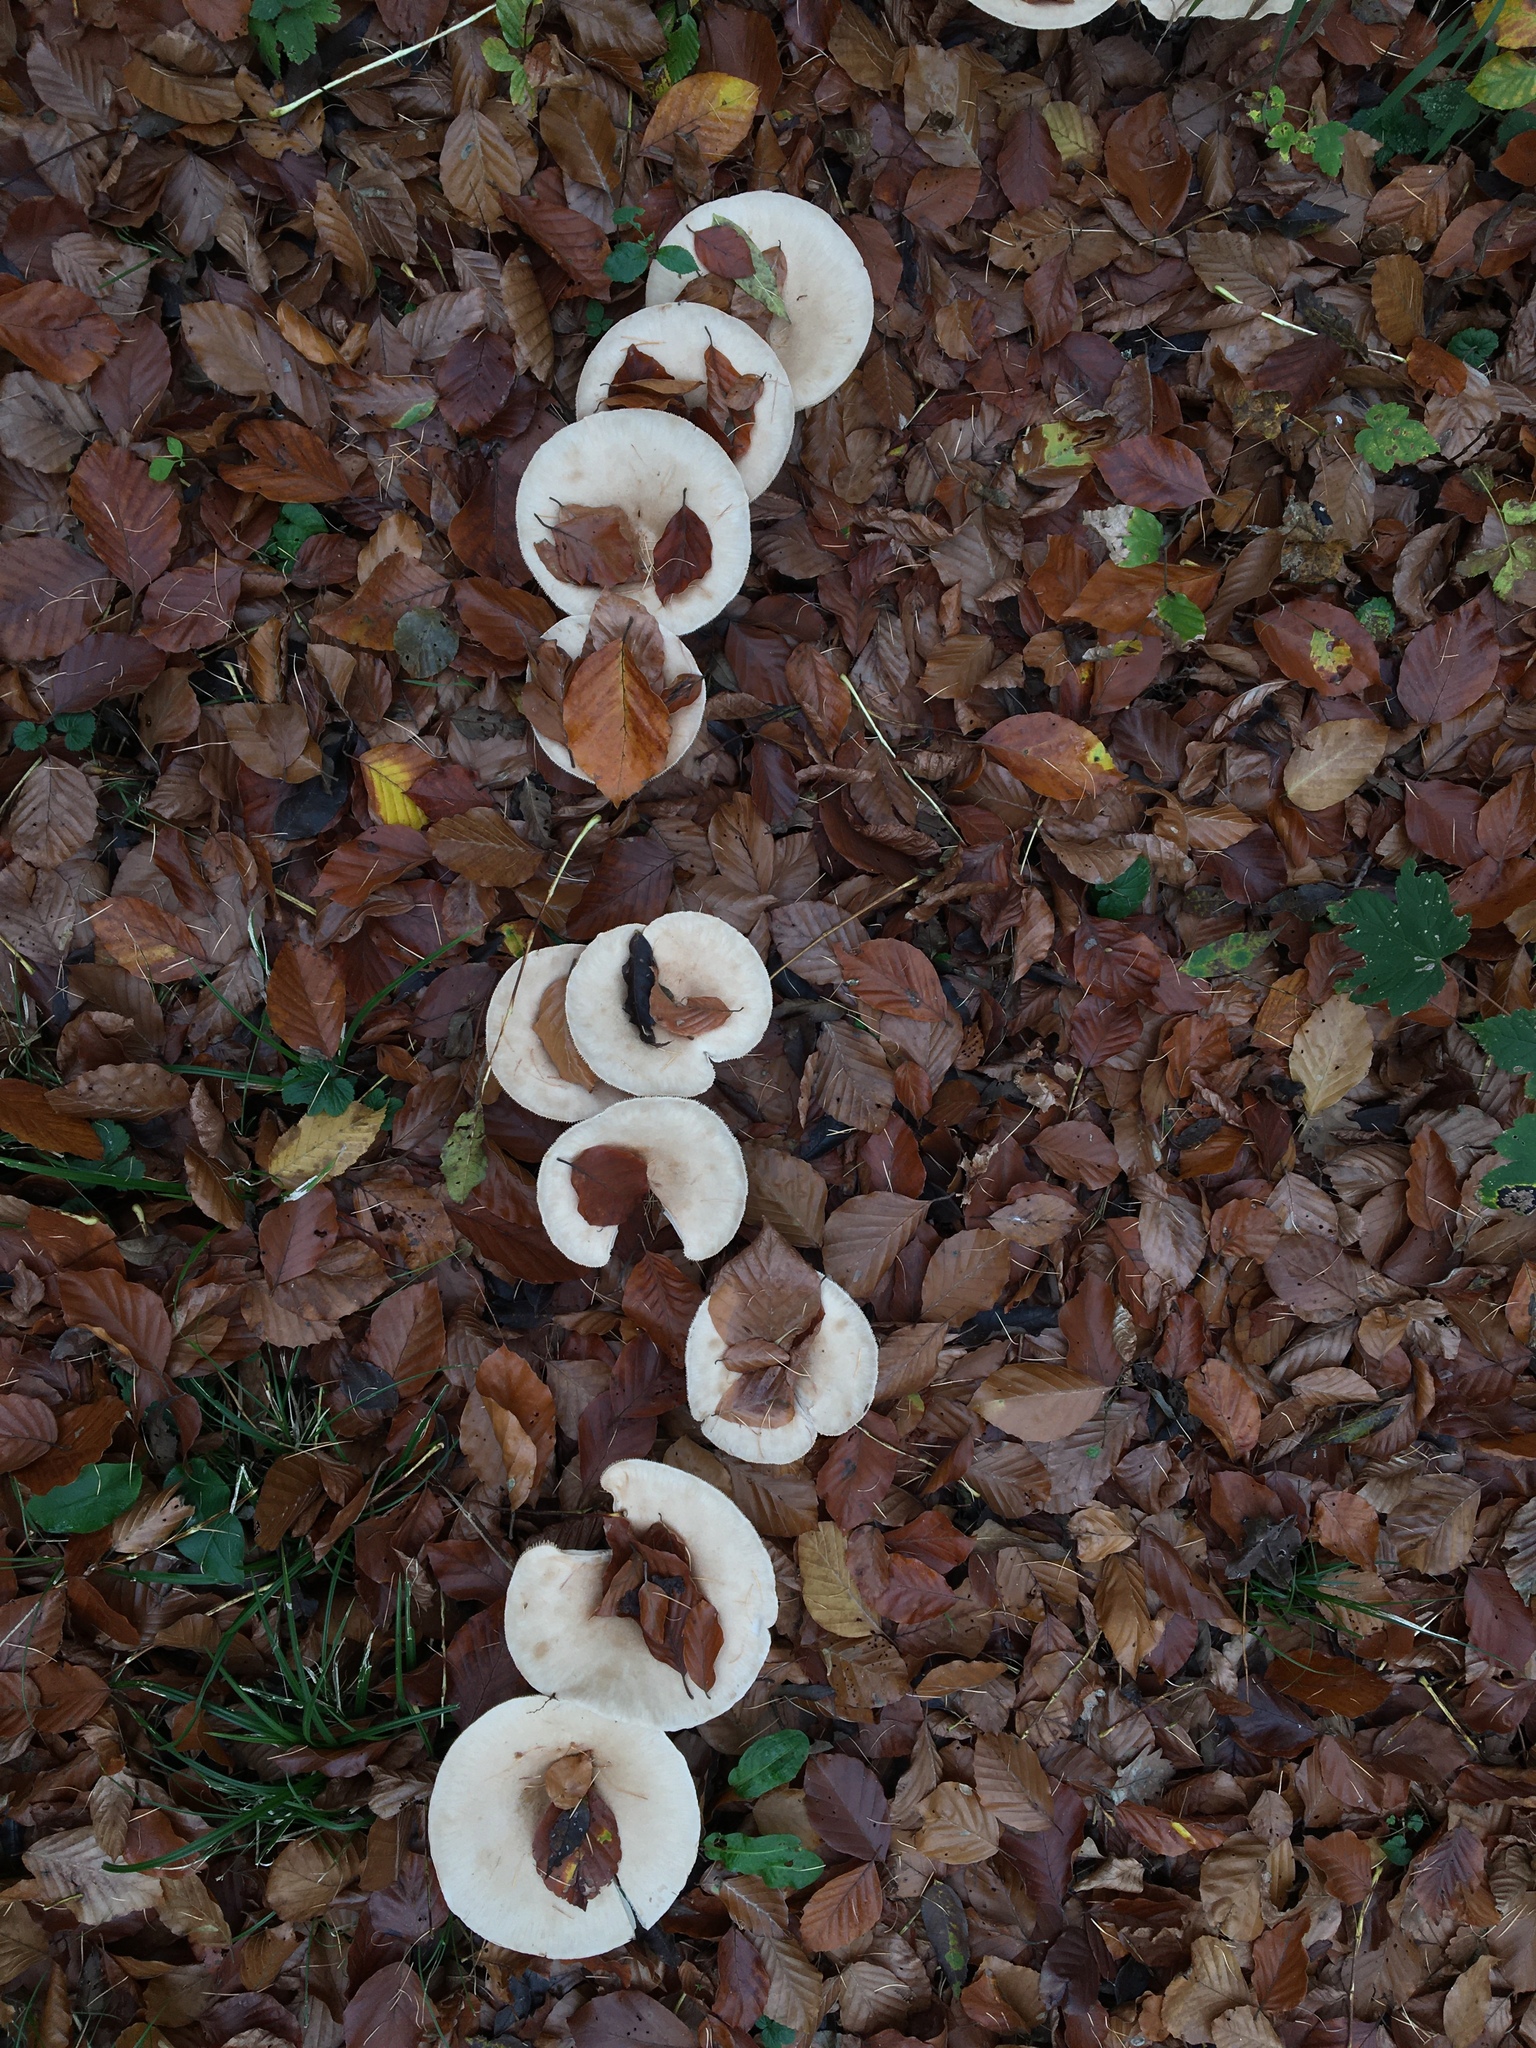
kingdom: Fungi
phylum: Basidiomycota
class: Agaricomycetes
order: Agaricales
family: Tricholomataceae
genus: Infundibulicybe
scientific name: Infundibulicybe geotropa
